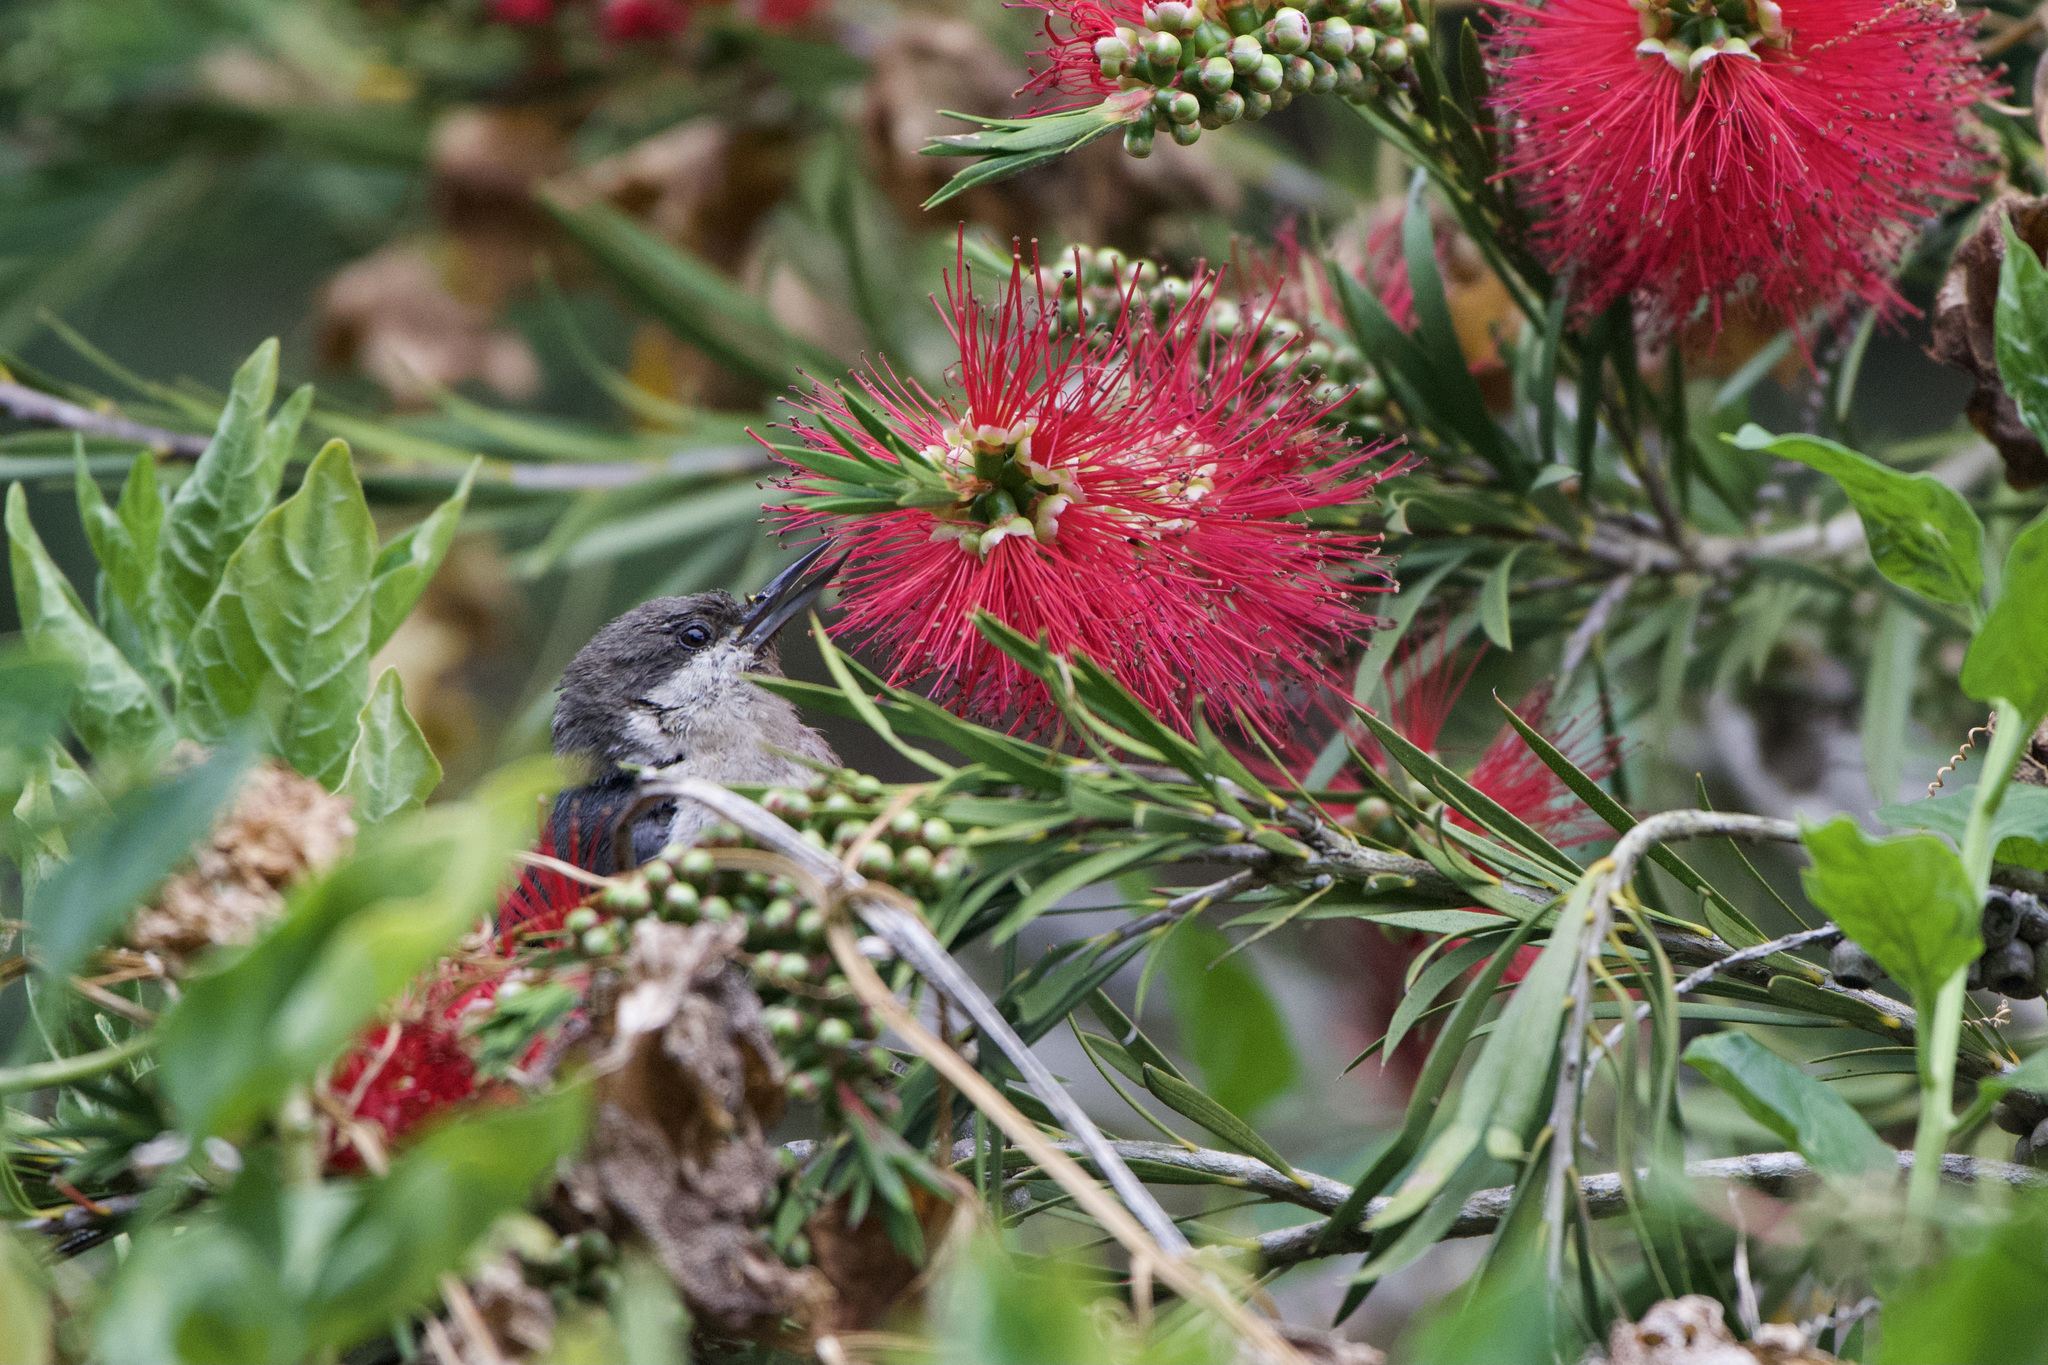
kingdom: Animalia
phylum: Chordata
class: Aves
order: Passeriformes
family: Sittidae
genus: Sitta
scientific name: Sitta pygmaea
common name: Pygmy nuthatch
